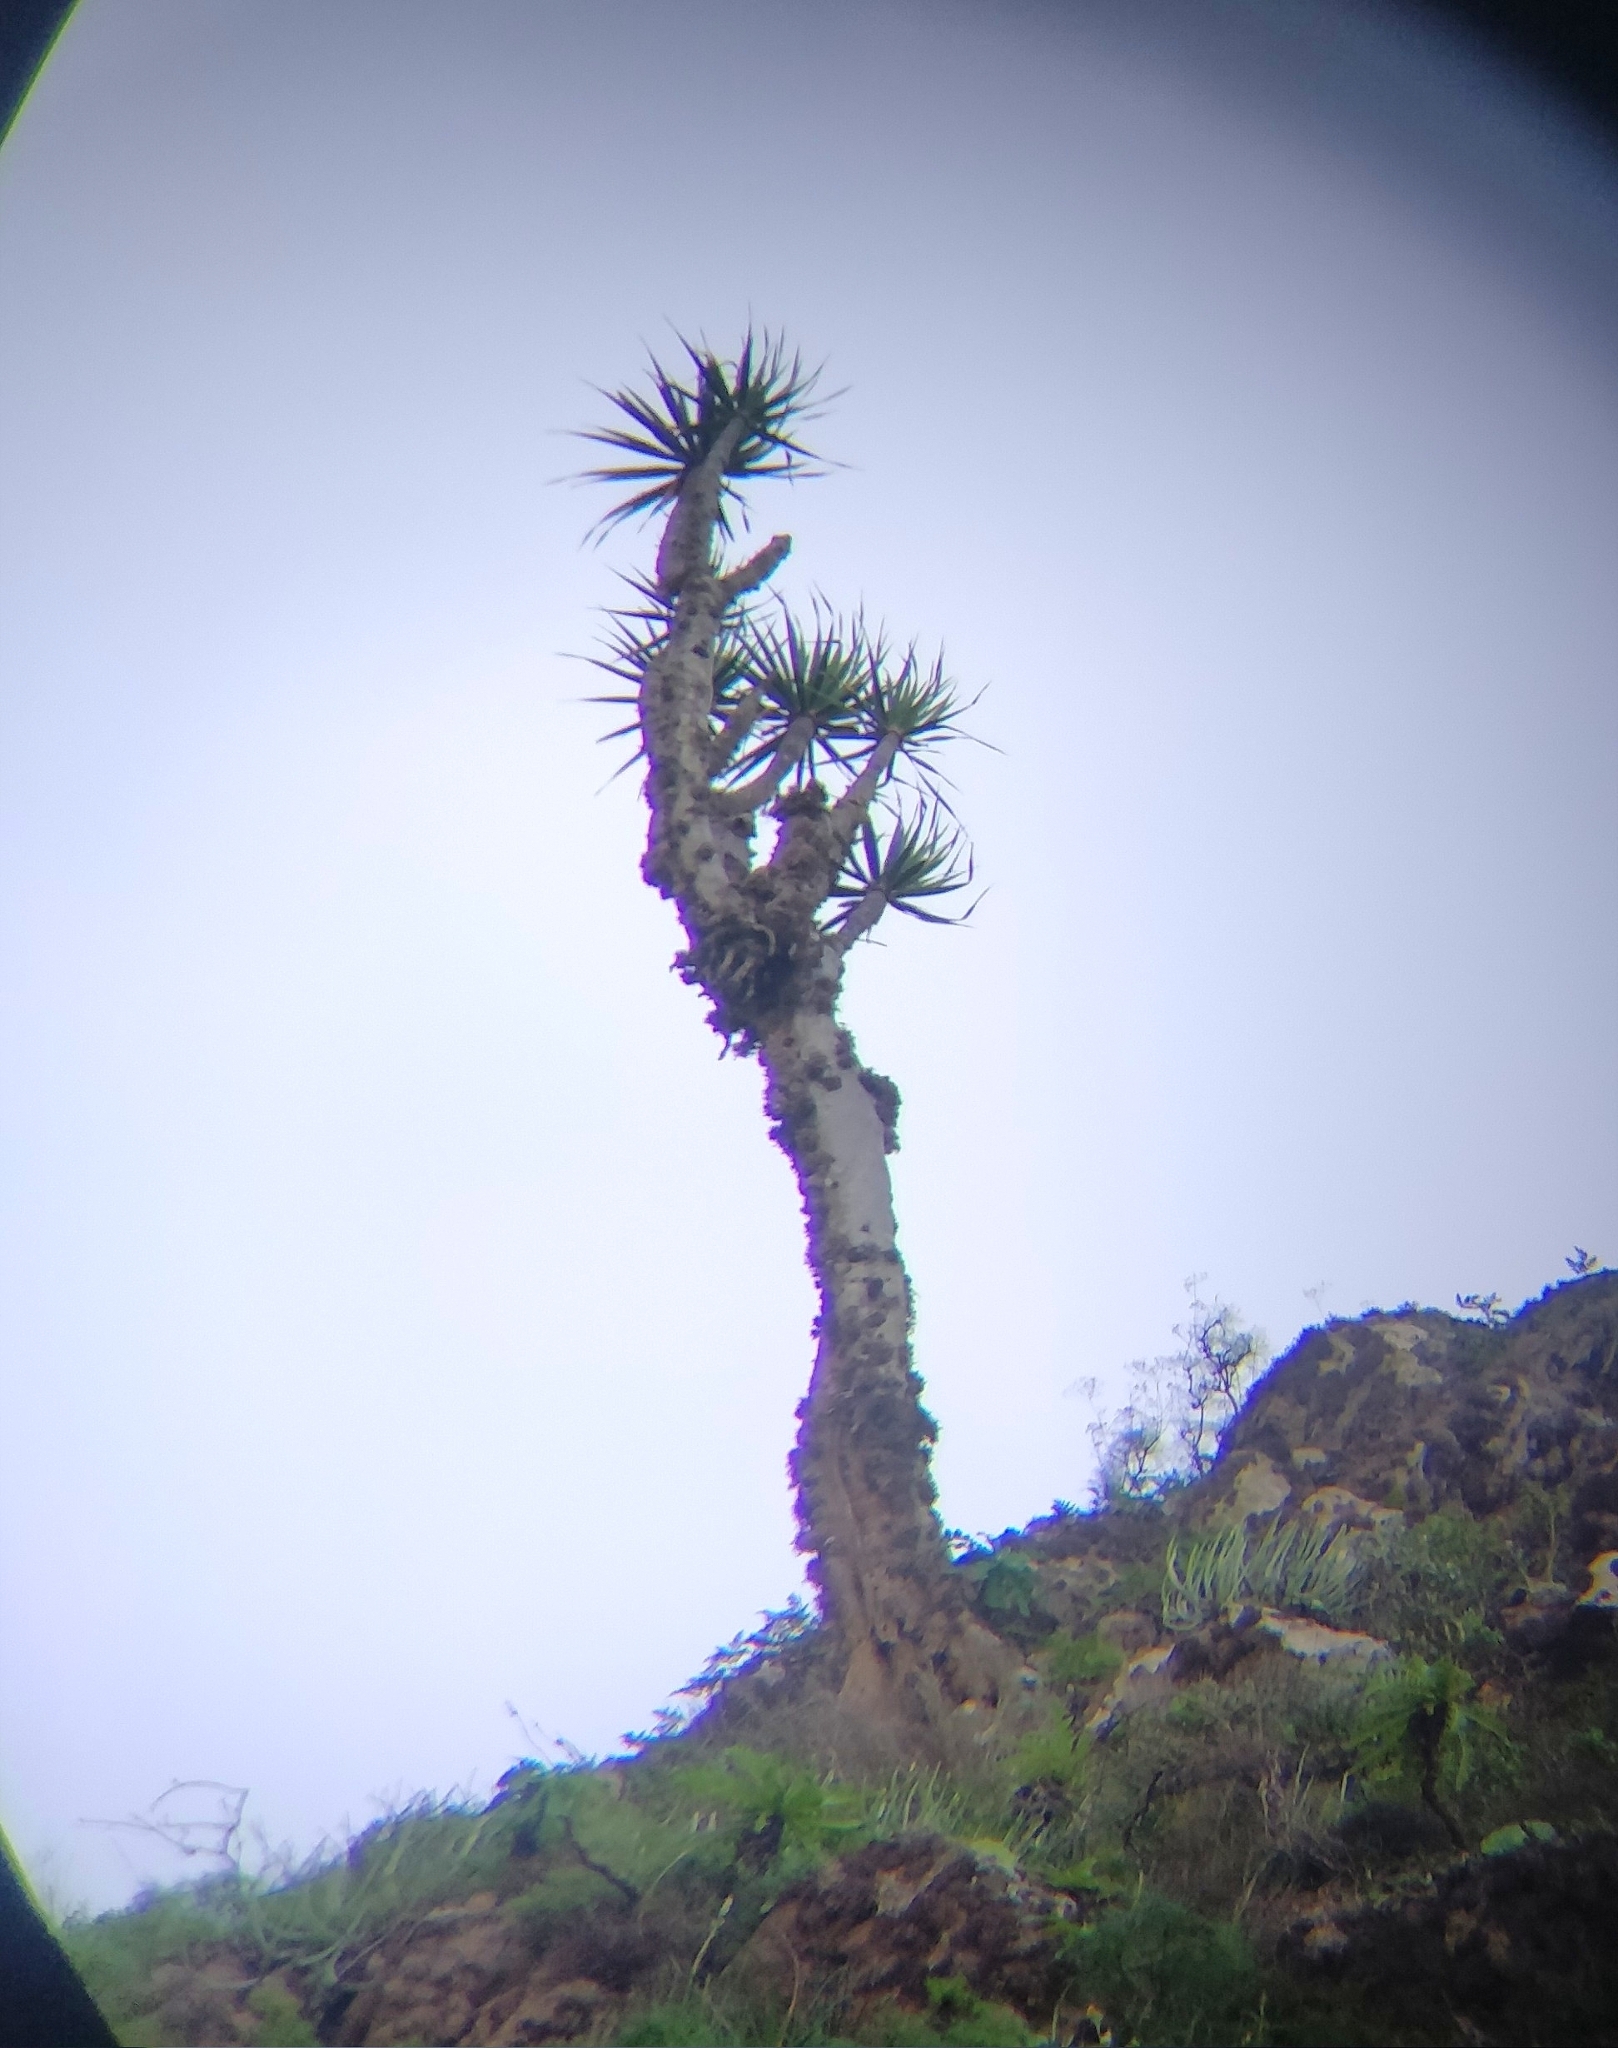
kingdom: Plantae
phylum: Tracheophyta
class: Liliopsida
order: Asparagales
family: Asparagaceae
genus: Dracaena
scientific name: Dracaena draco
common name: Canary island dragon tree
